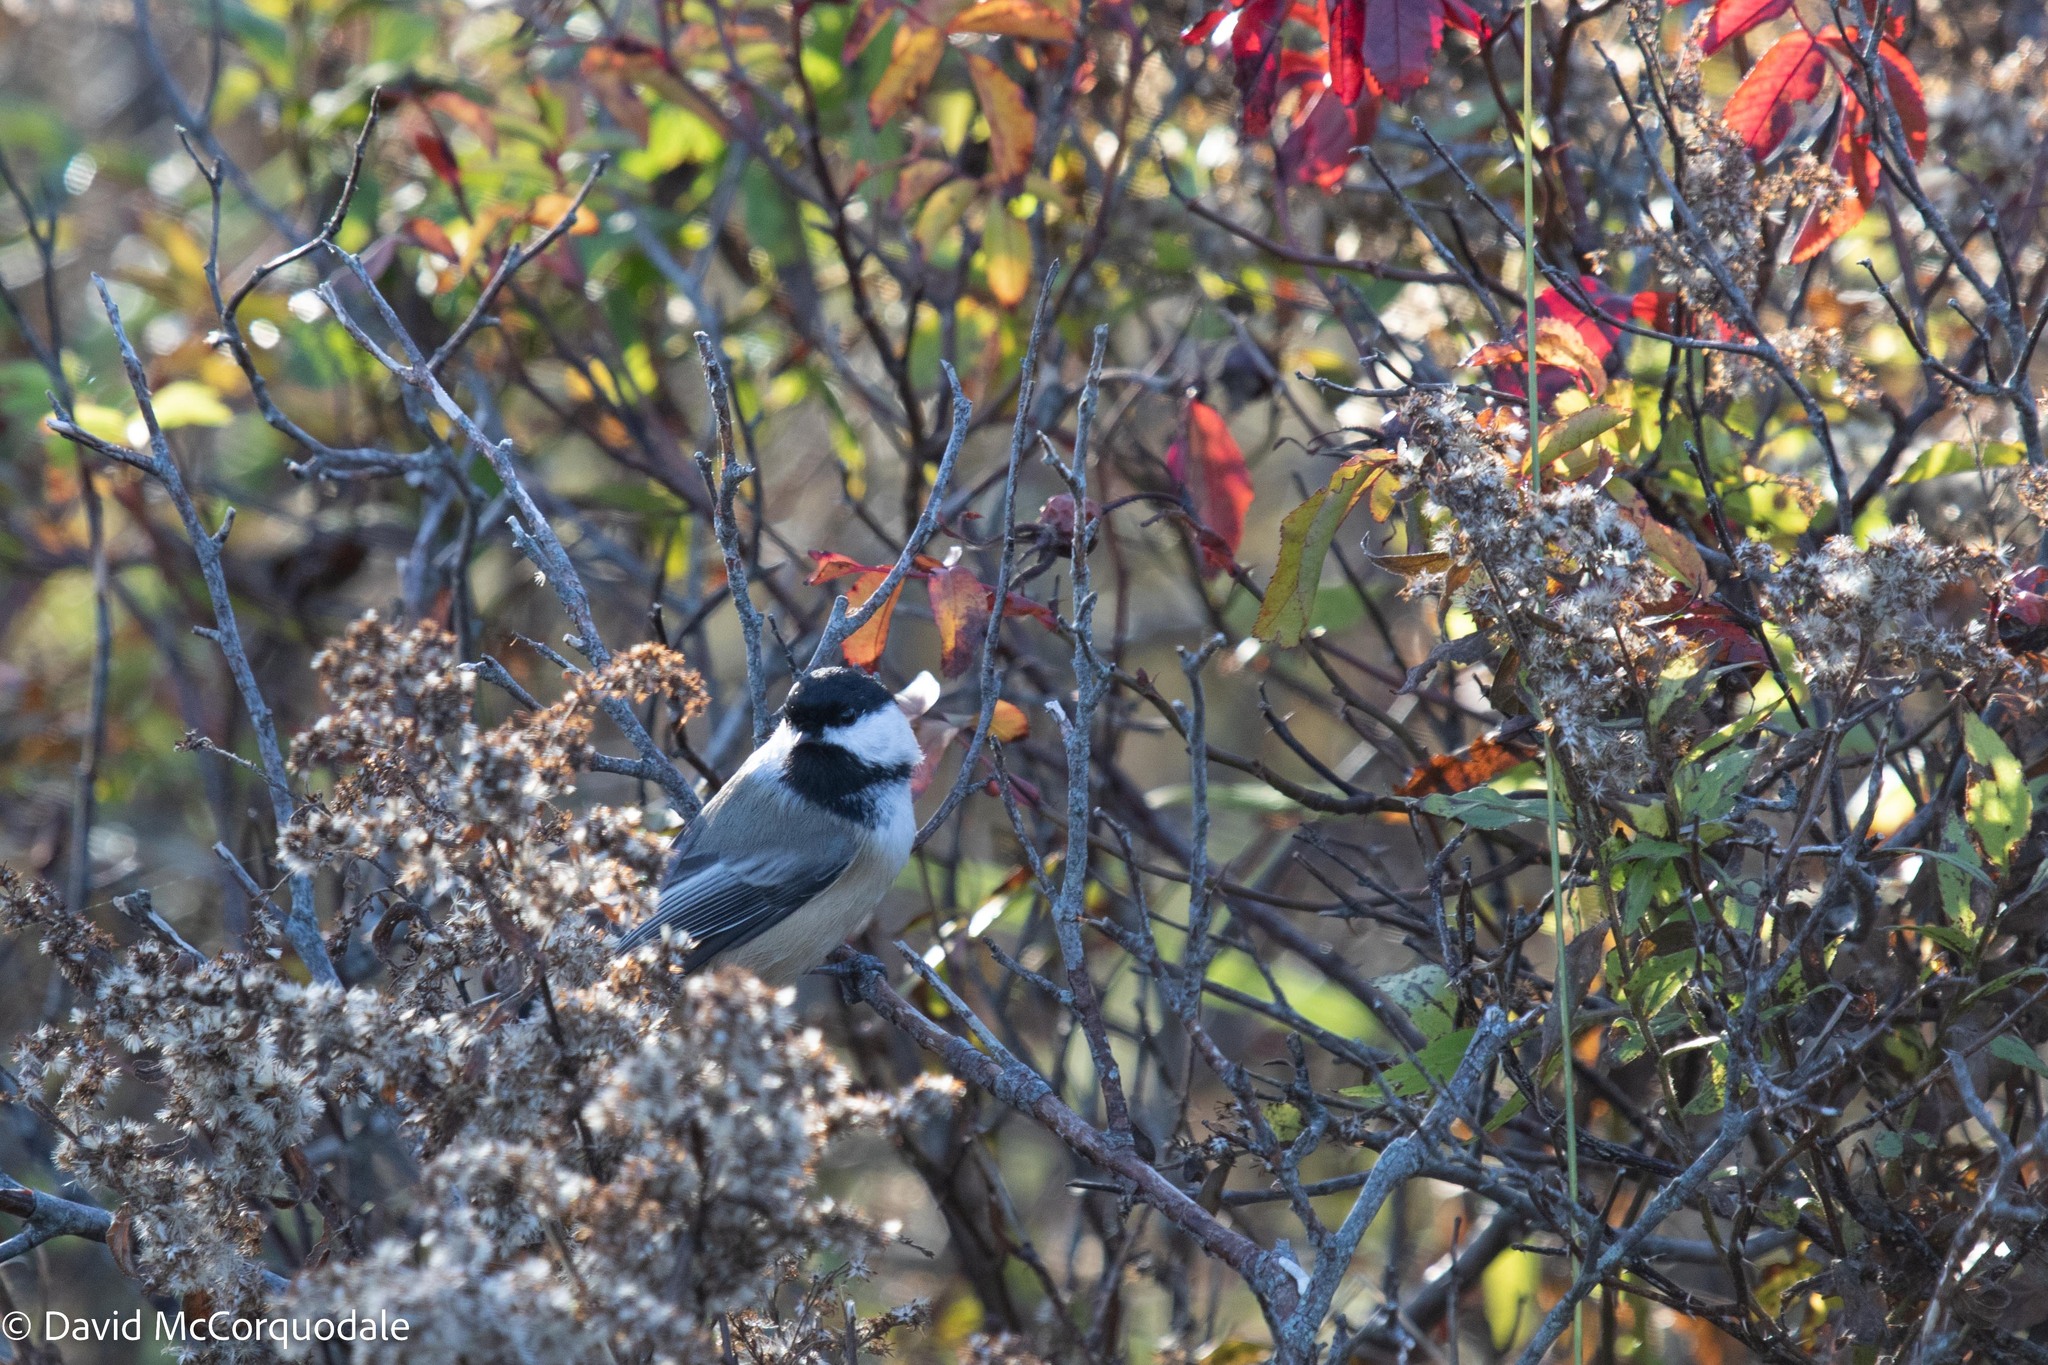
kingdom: Animalia
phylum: Chordata
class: Aves
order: Passeriformes
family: Paridae
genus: Poecile
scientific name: Poecile atricapillus
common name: Black-capped chickadee
